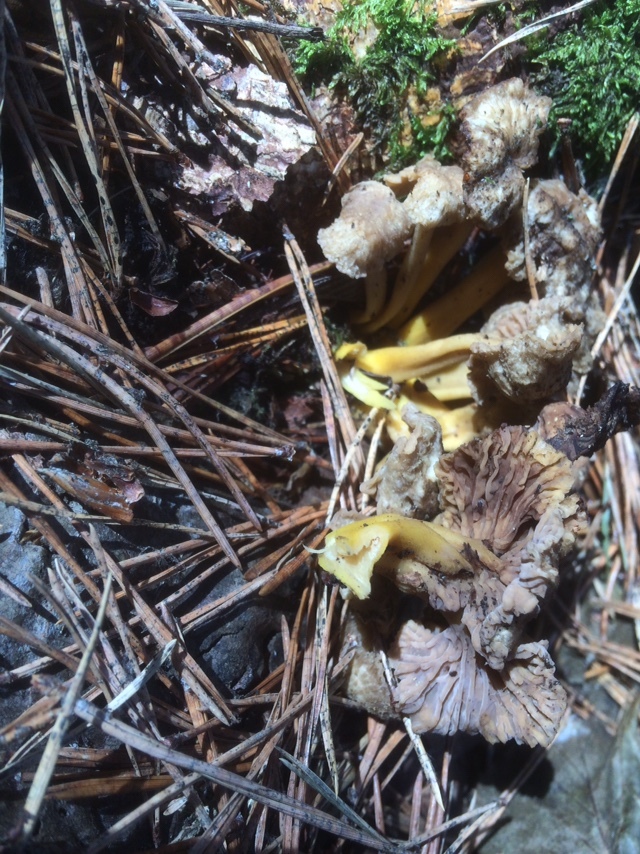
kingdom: Fungi
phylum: Basidiomycota
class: Agaricomycetes
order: Cantharellales
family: Hydnaceae
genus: Craterellus
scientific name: Craterellus tubaeformis
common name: Yellowfoot
